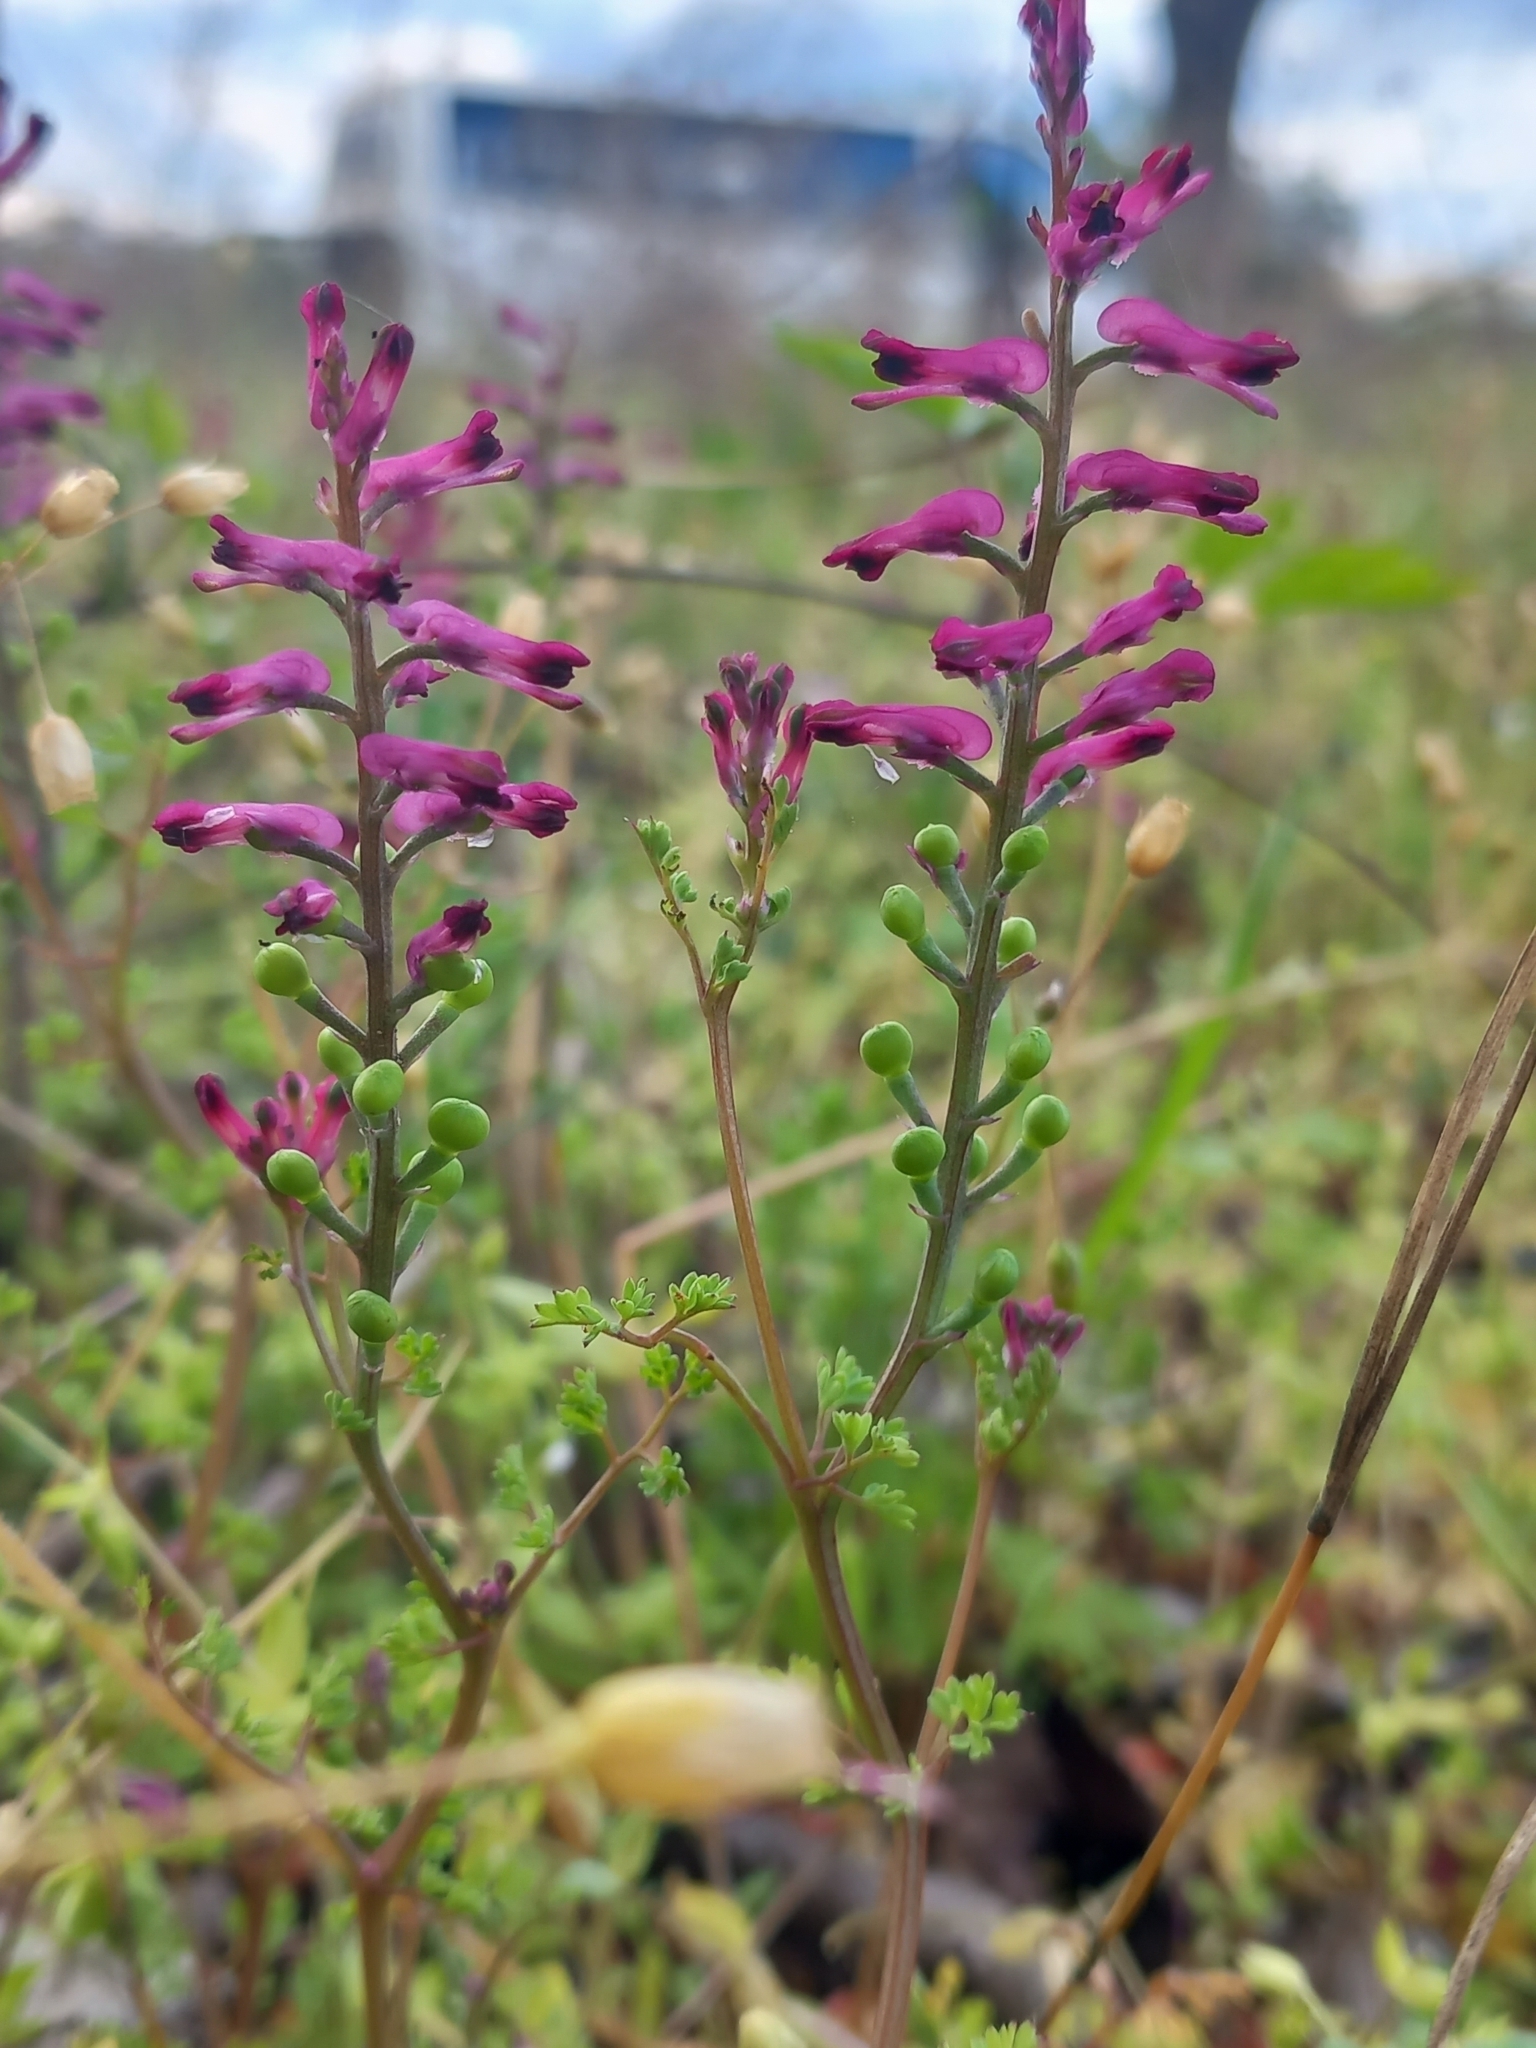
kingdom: Plantae
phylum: Tracheophyta
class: Magnoliopsida
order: Ranunculales
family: Papaveraceae
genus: Fumaria
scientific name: Fumaria officinalis
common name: Common fumitory
